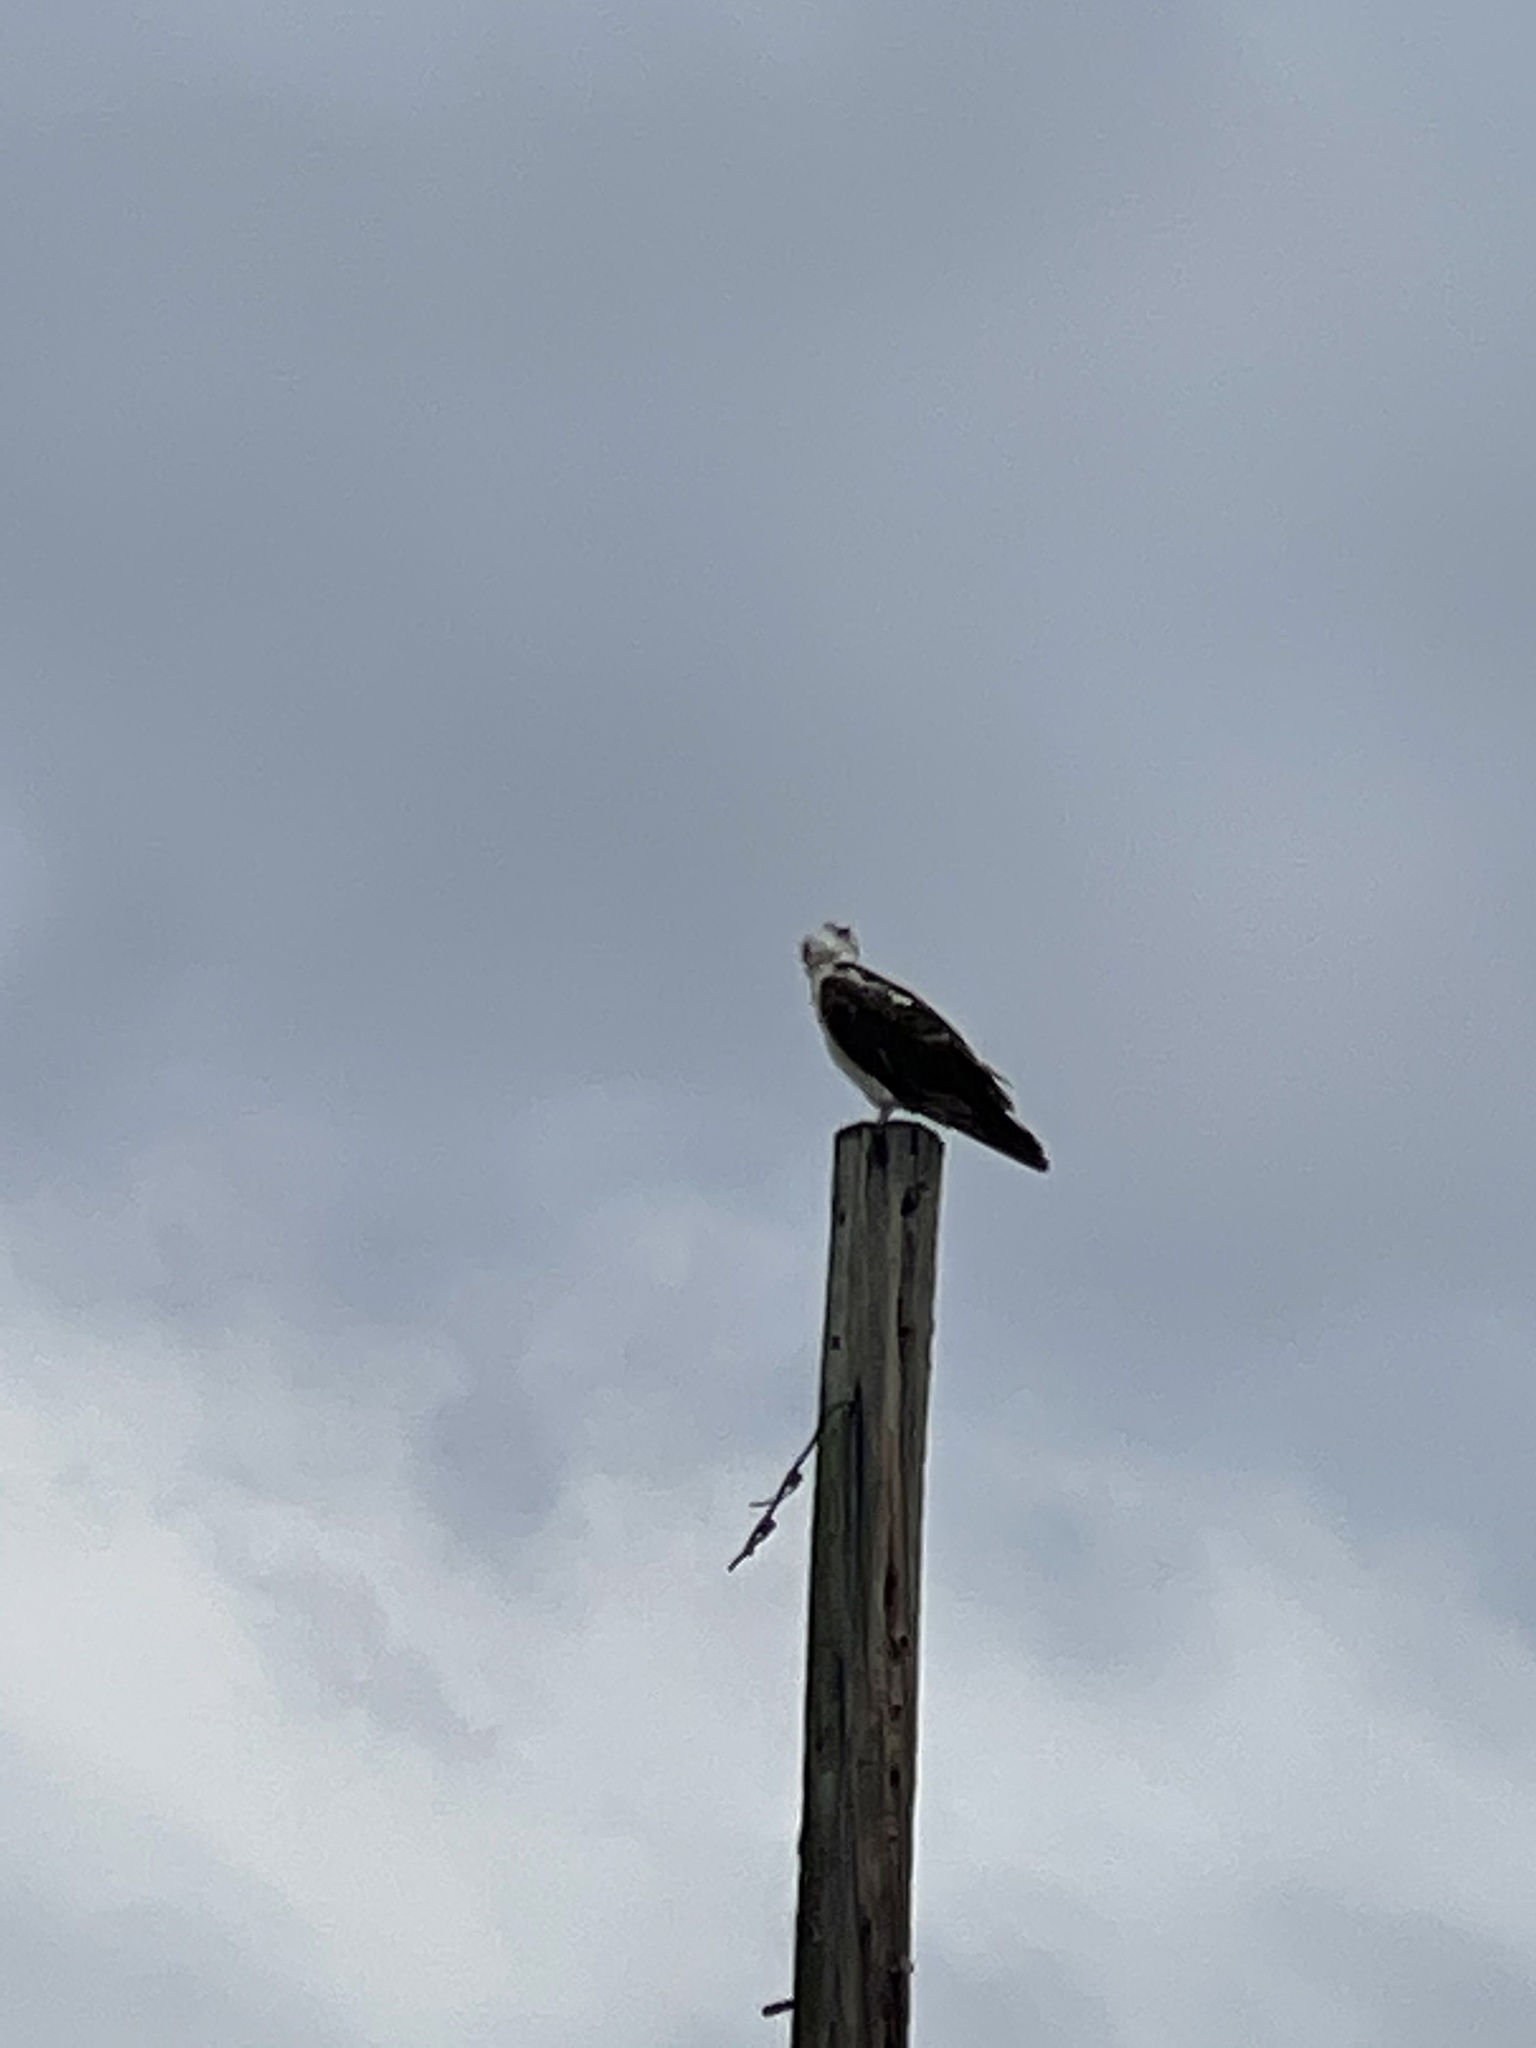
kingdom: Animalia
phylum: Chordata
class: Aves
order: Accipitriformes
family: Pandionidae
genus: Pandion
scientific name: Pandion haliaetus
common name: Osprey
